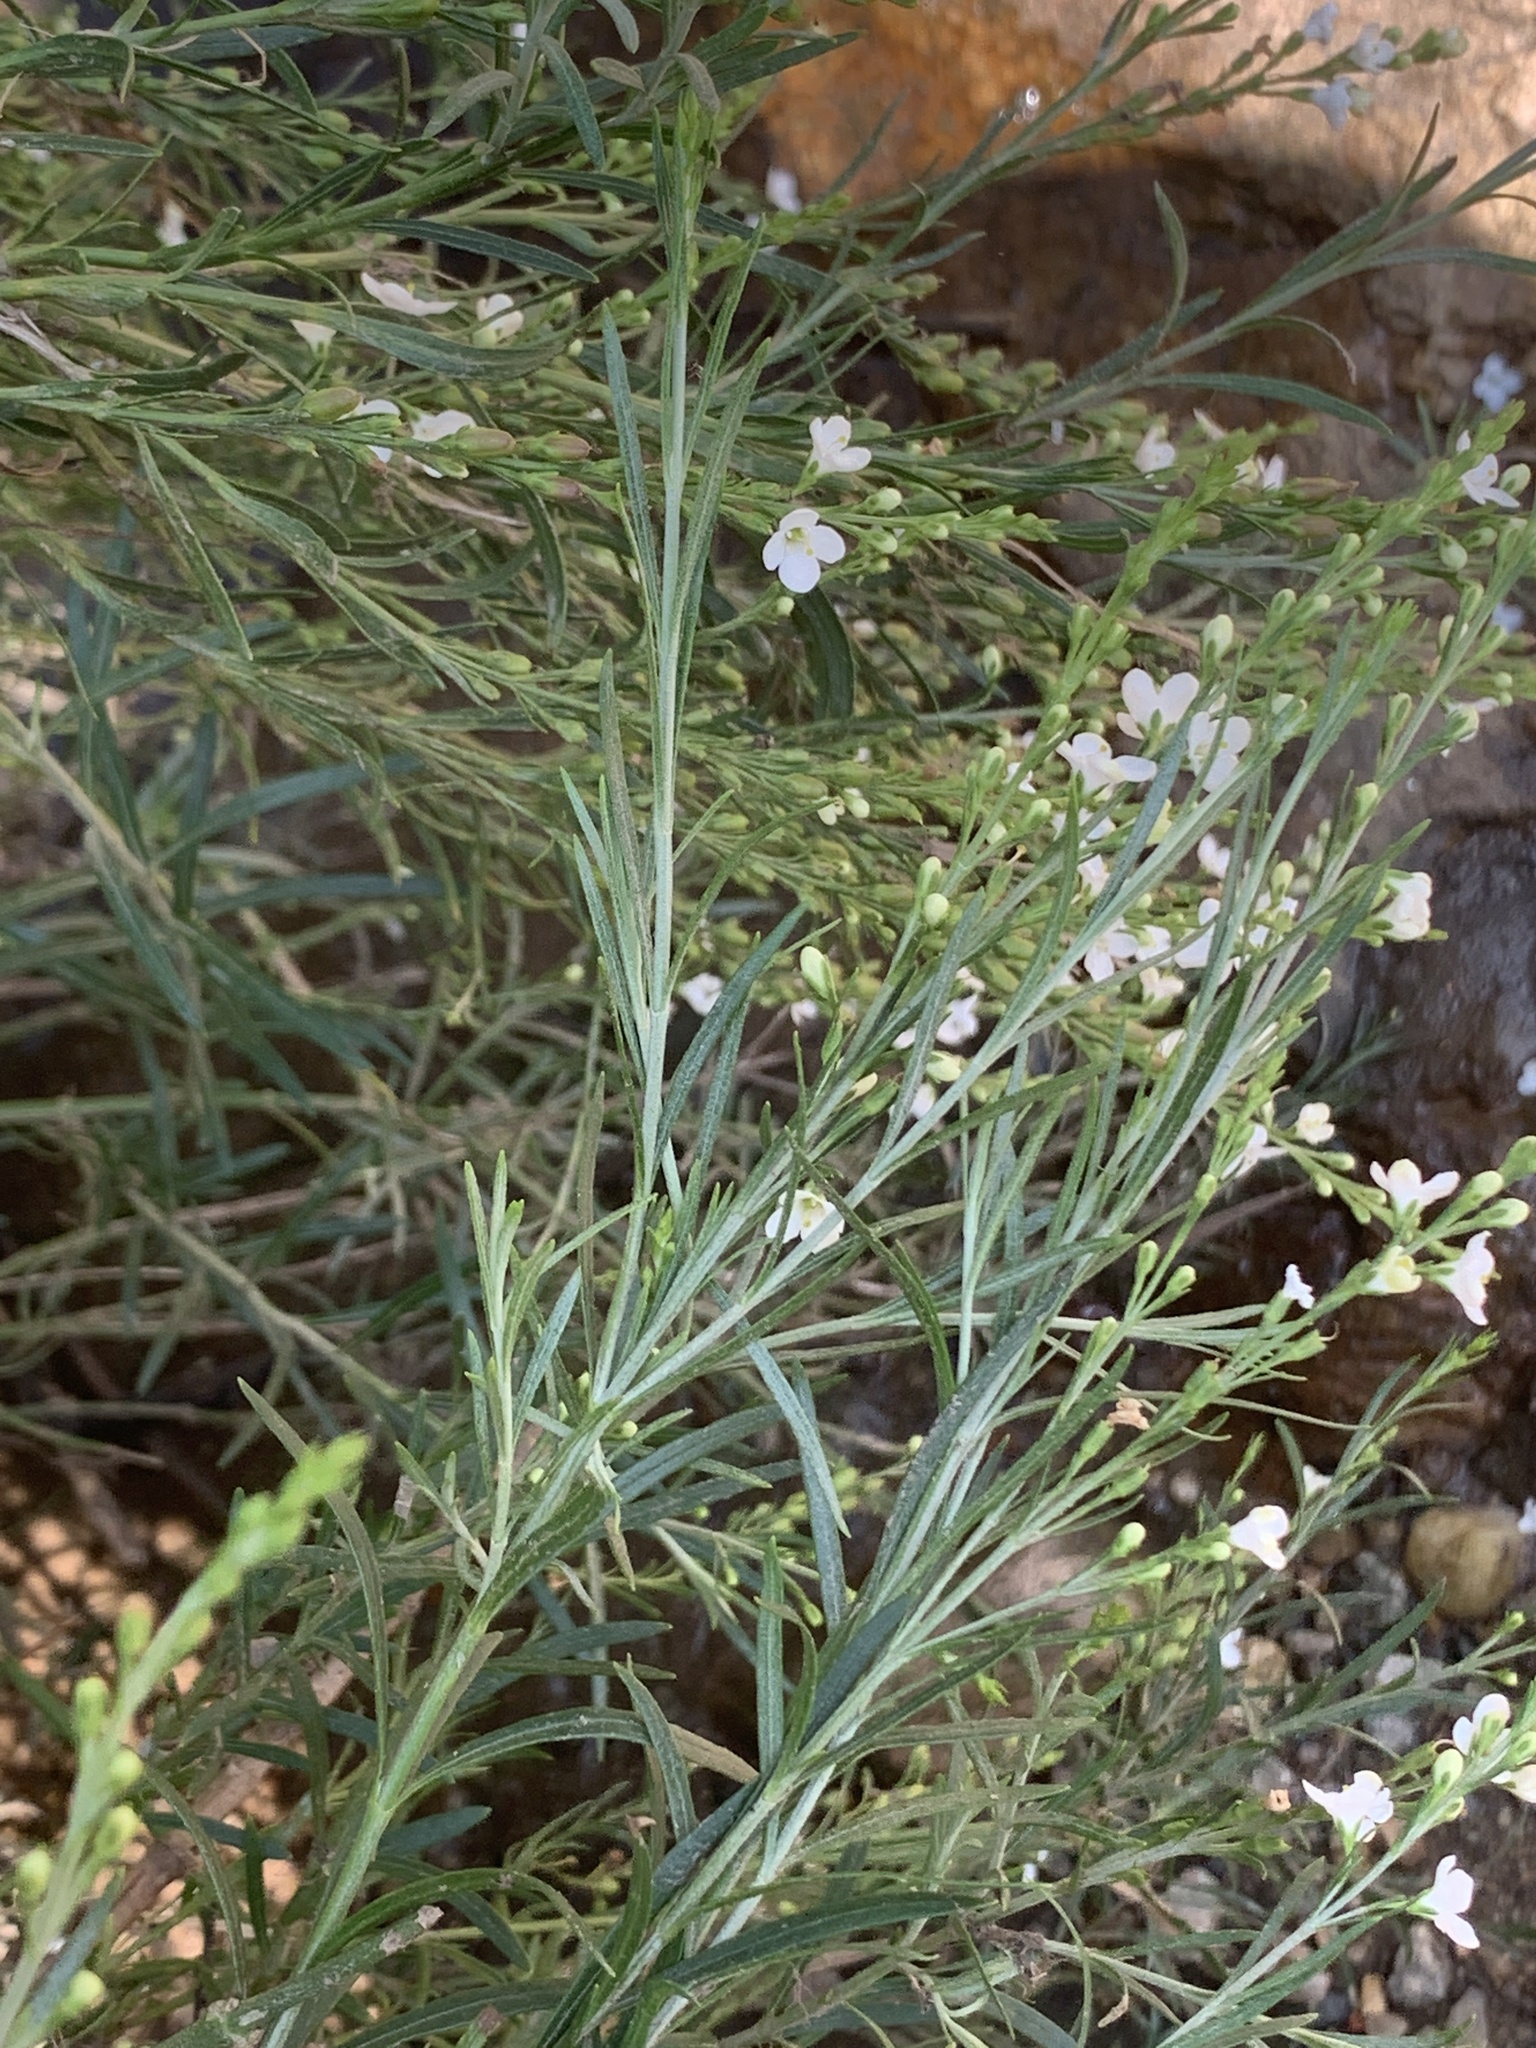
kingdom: Plantae
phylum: Tracheophyta
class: Magnoliopsida
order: Lamiales
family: Scrophulariaceae
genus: Buddleja
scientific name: Buddleja virgata
